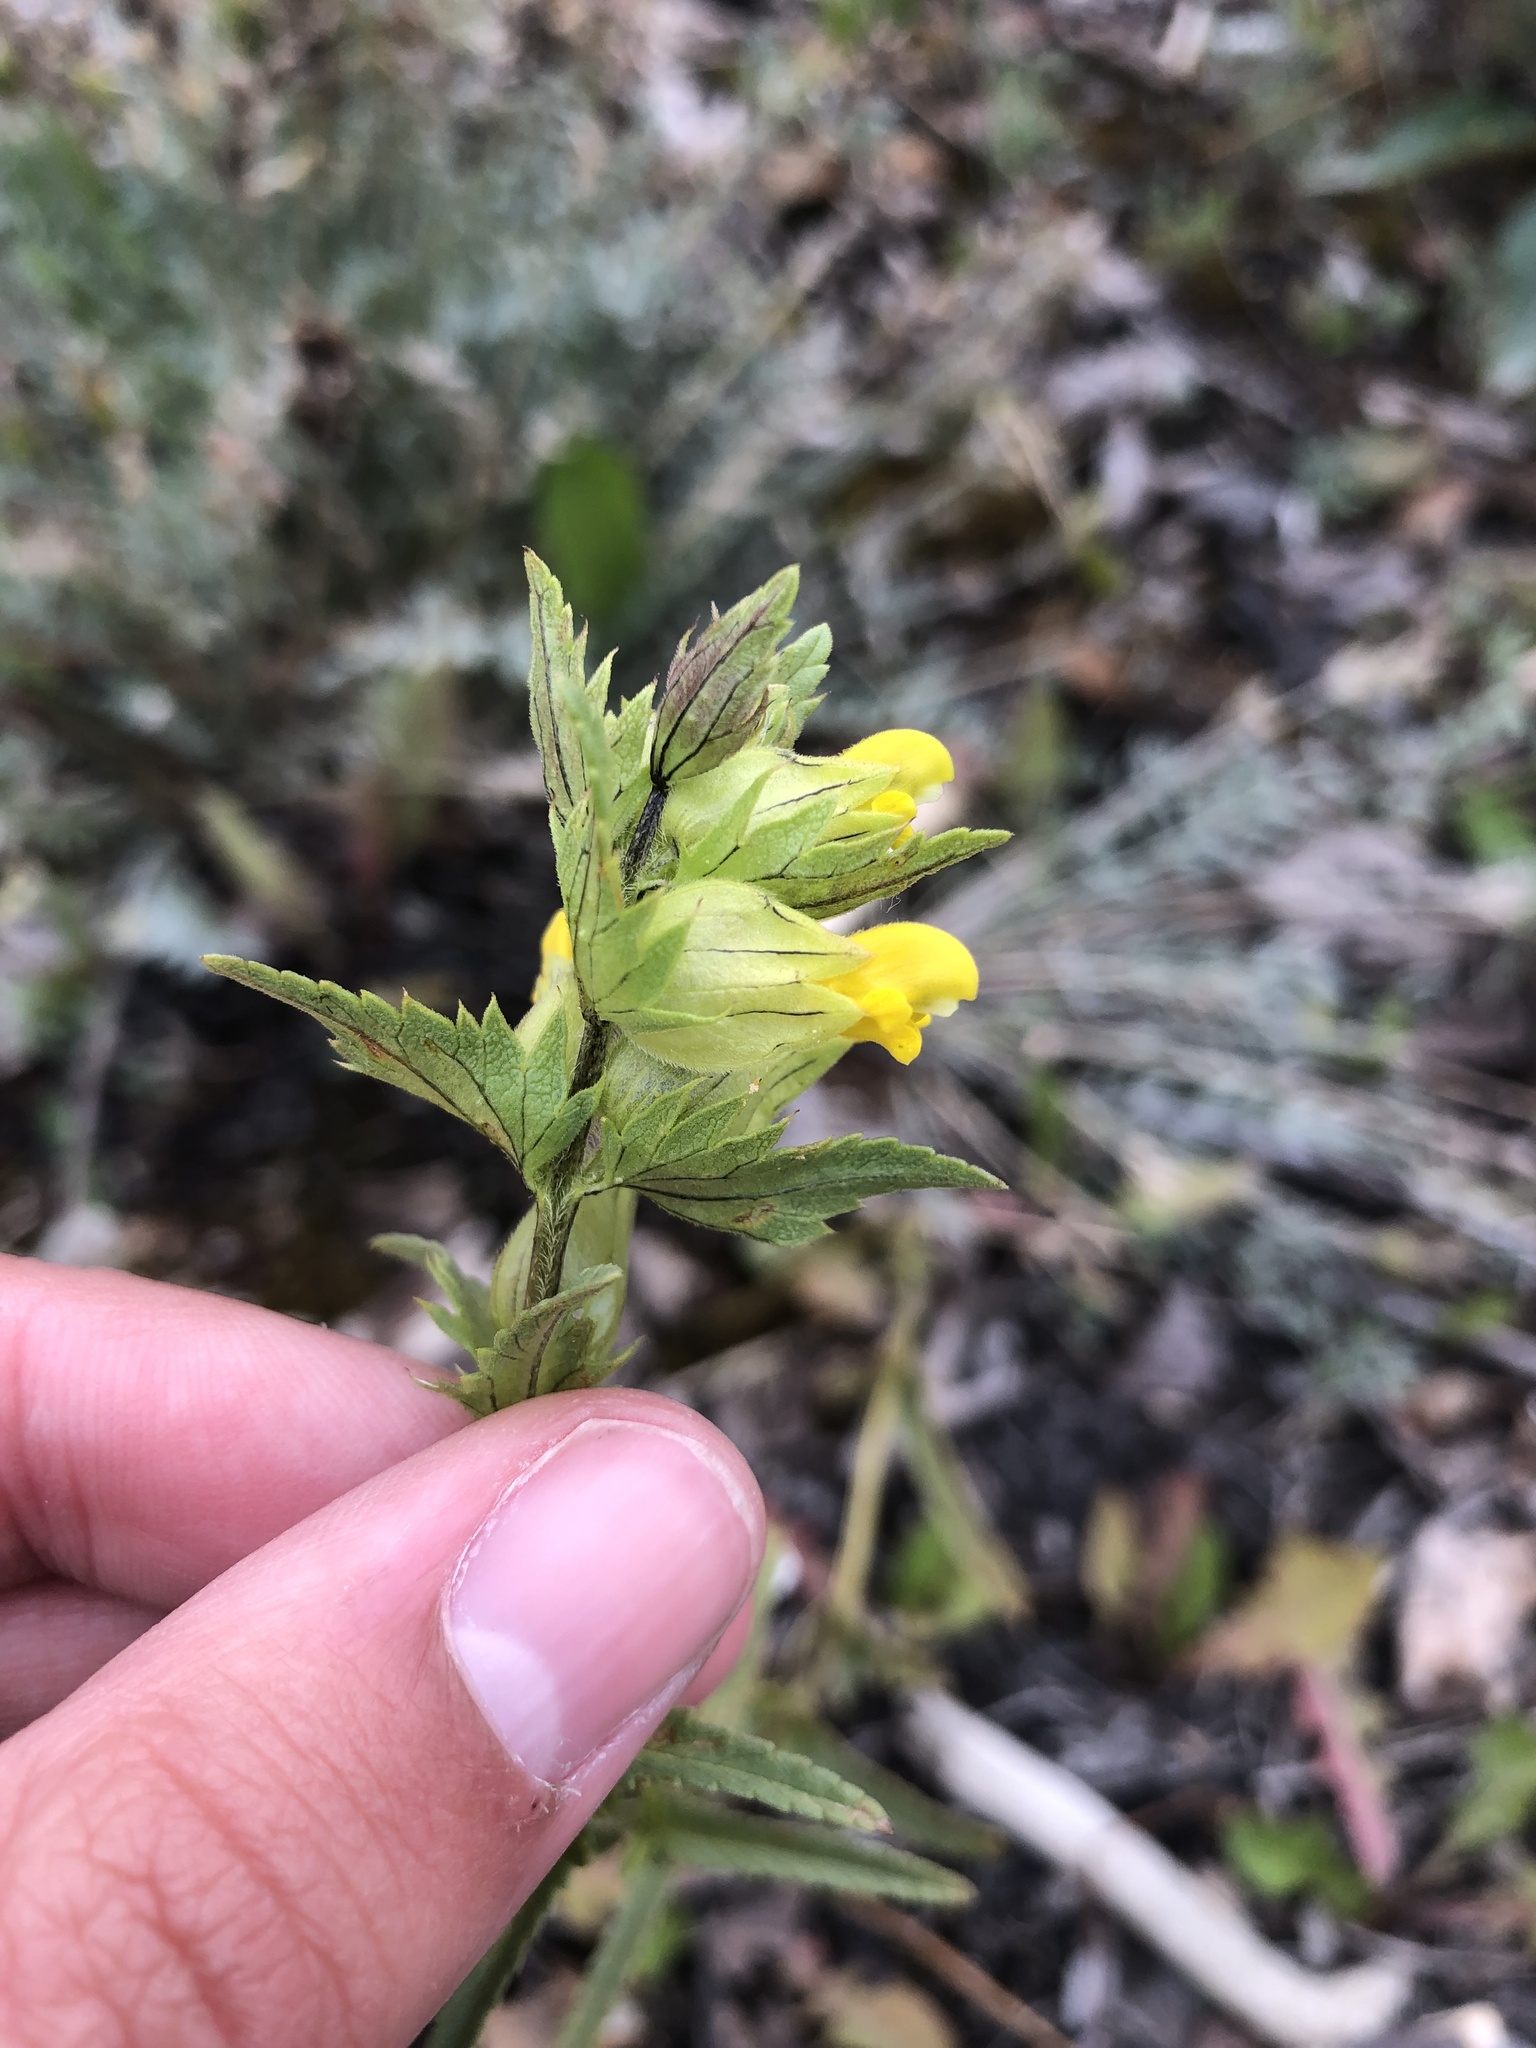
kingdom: Plantae
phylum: Tracheophyta
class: Magnoliopsida
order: Lamiales
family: Orobanchaceae
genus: Rhinanthus
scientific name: Rhinanthus minor
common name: Yellow-rattle
